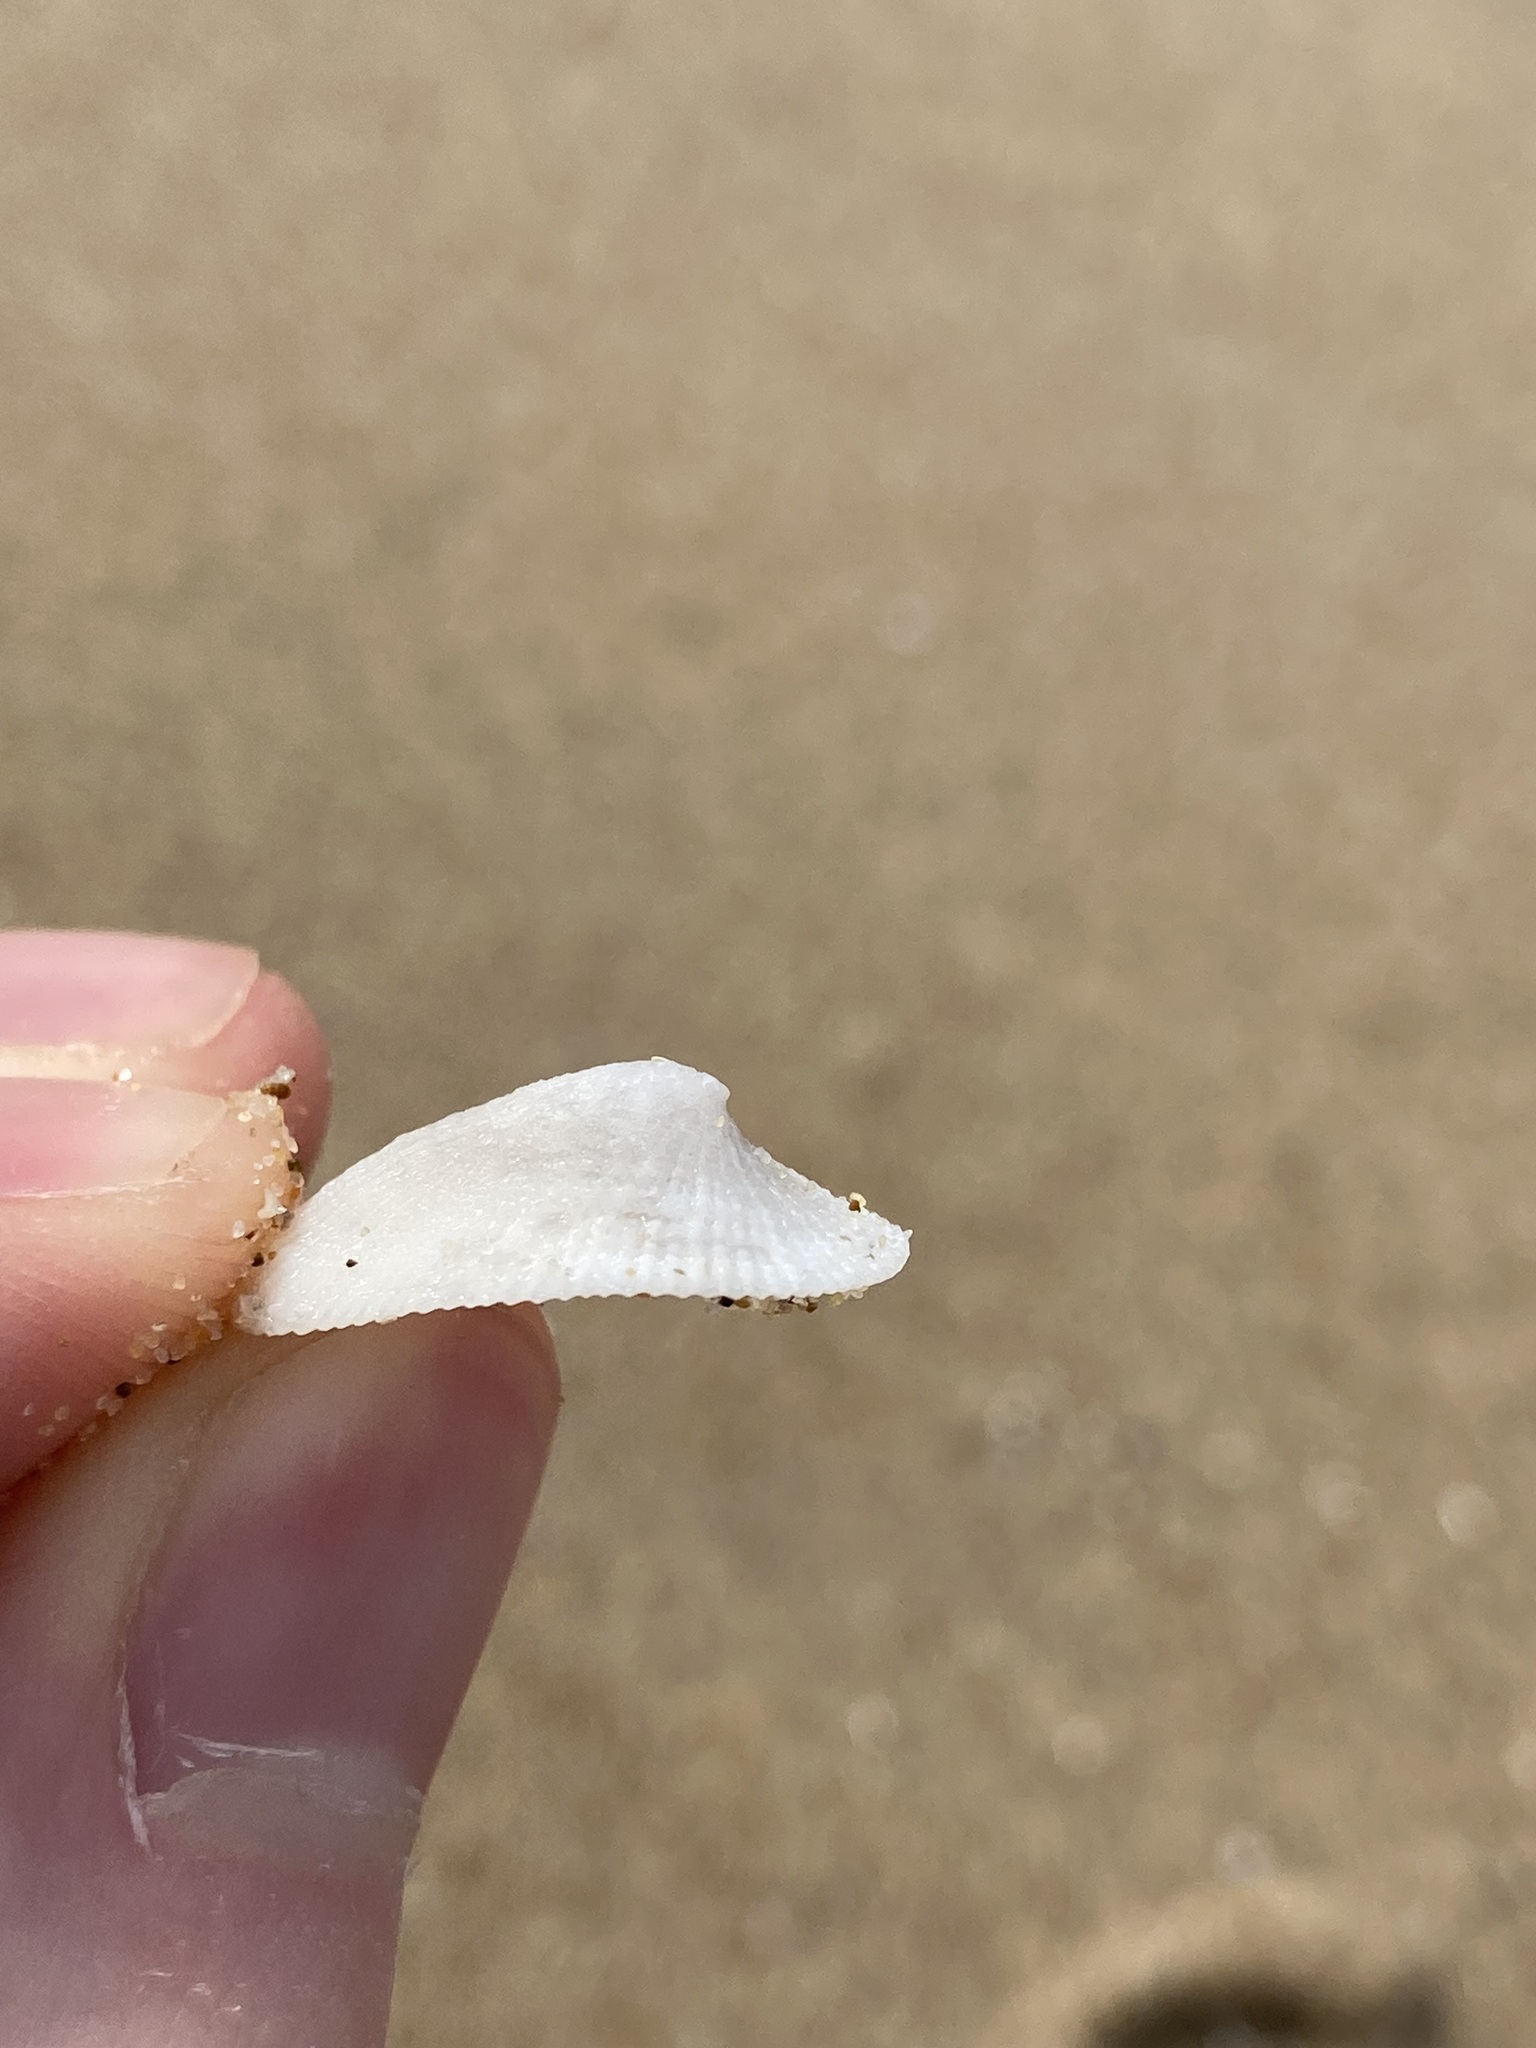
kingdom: Animalia
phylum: Mollusca
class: Gastropoda
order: Lepetellida
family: Fissurellidae
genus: Tugali
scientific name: Tugali parmophoidea
